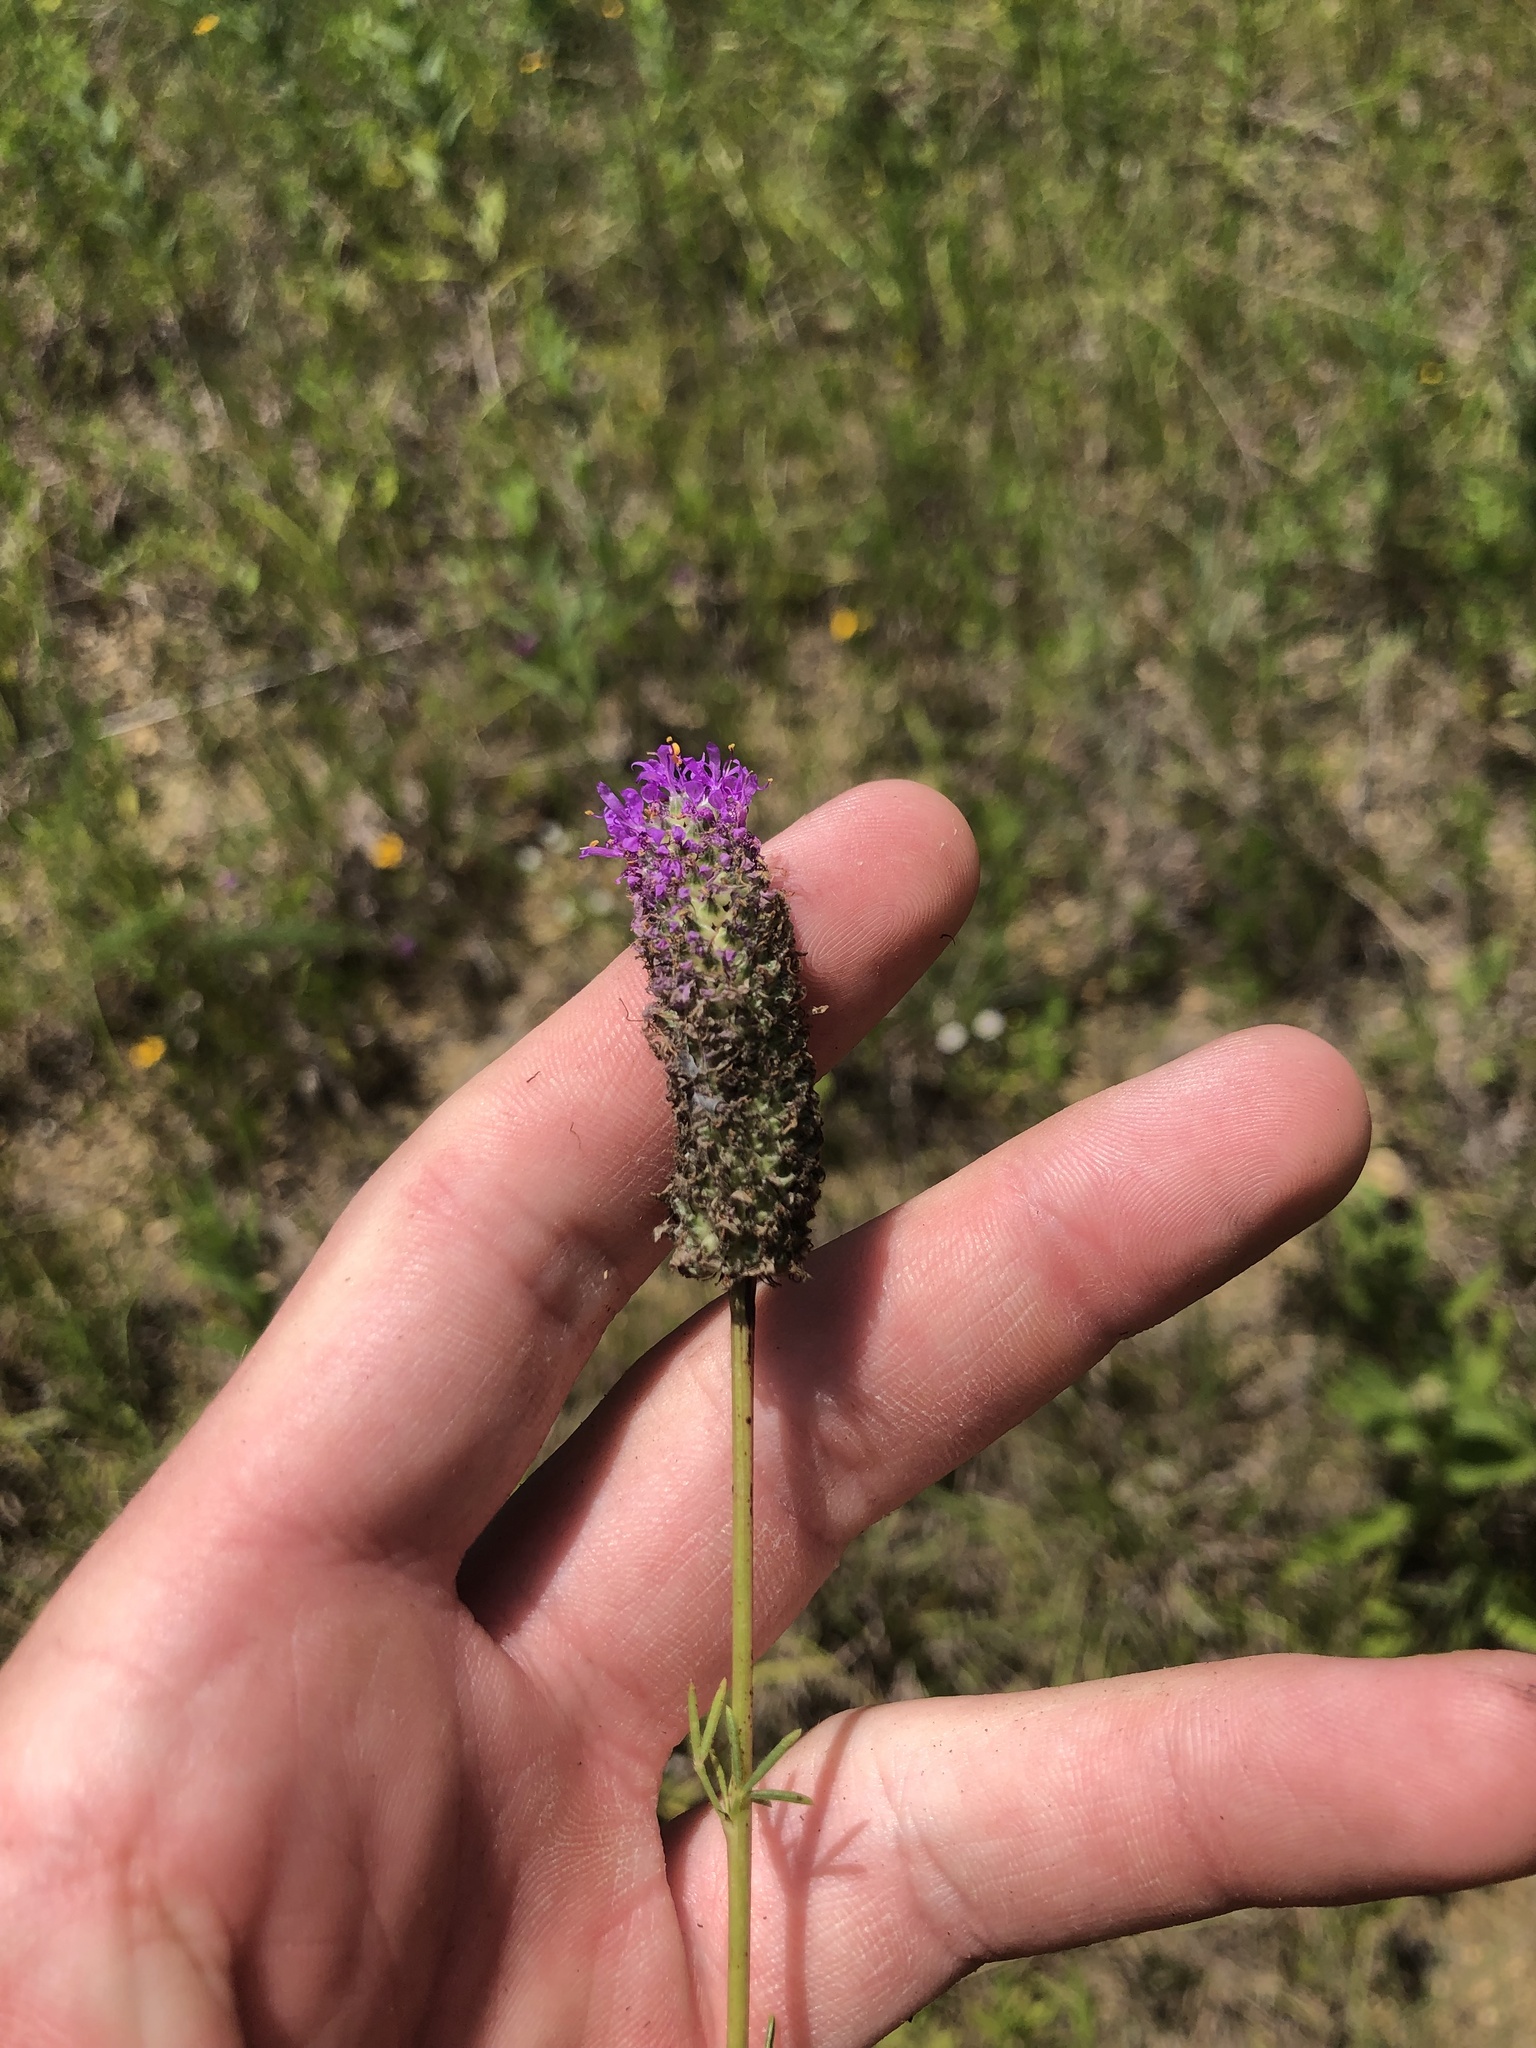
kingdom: Plantae
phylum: Tracheophyta
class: Magnoliopsida
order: Fabales
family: Fabaceae
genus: Dalea
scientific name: Dalea purpurea
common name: Purple prairie-clover
